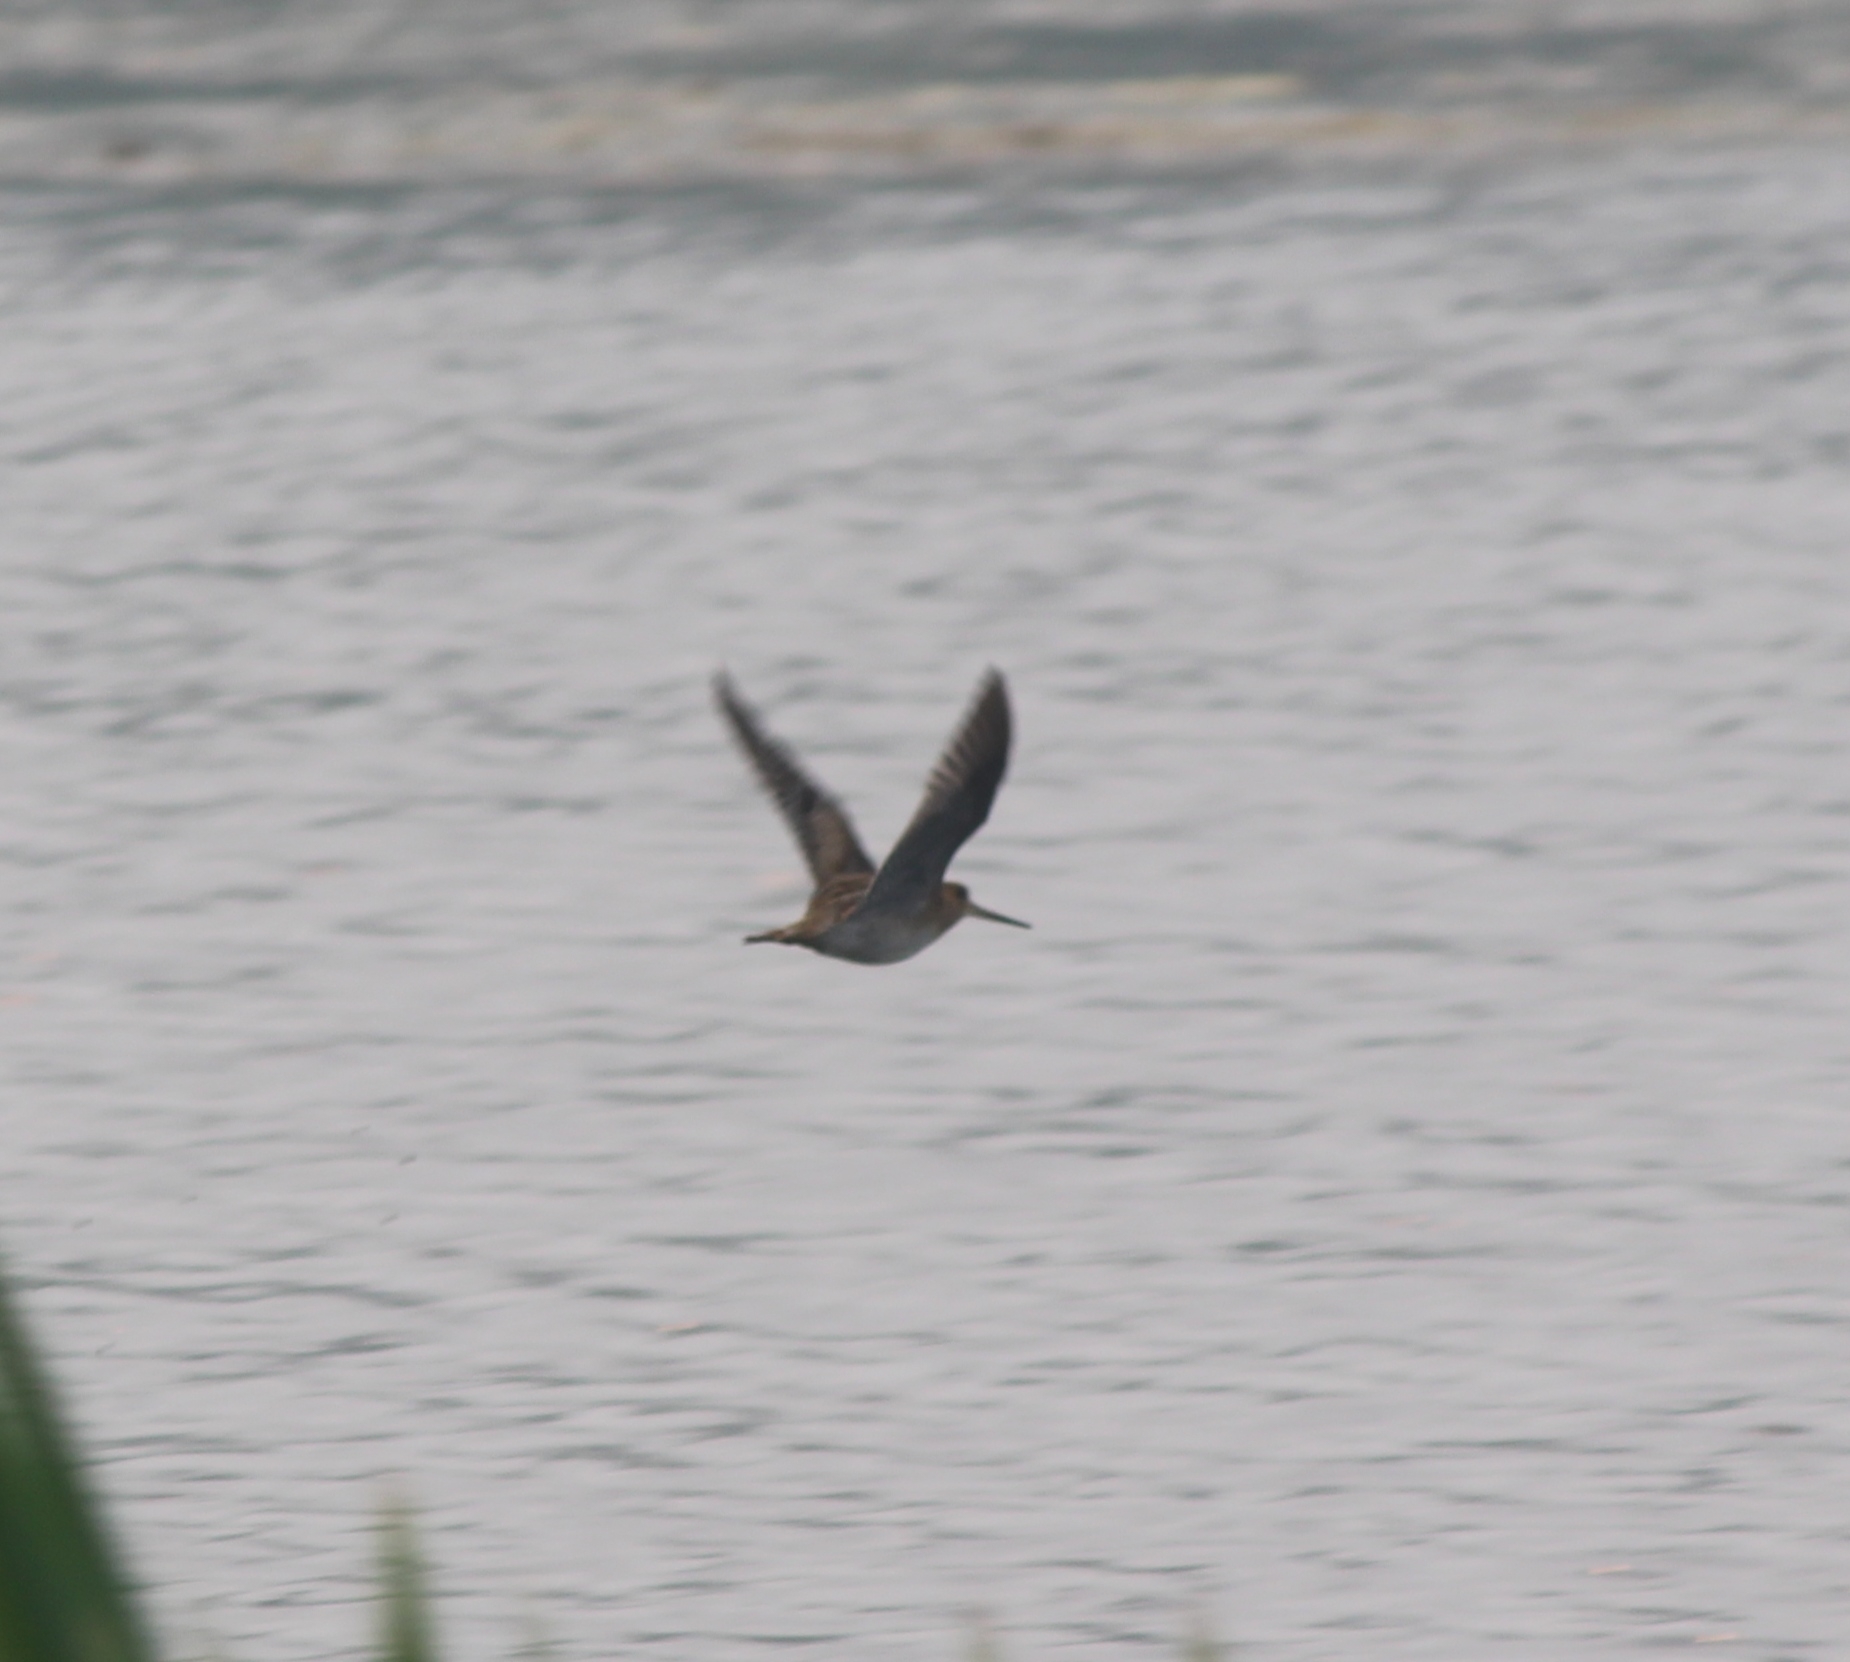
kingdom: Animalia
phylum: Chordata
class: Aves
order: Charadriiformes
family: Scolopacidae
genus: Gallinago
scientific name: Gallinago gallinago
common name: Common snipe
